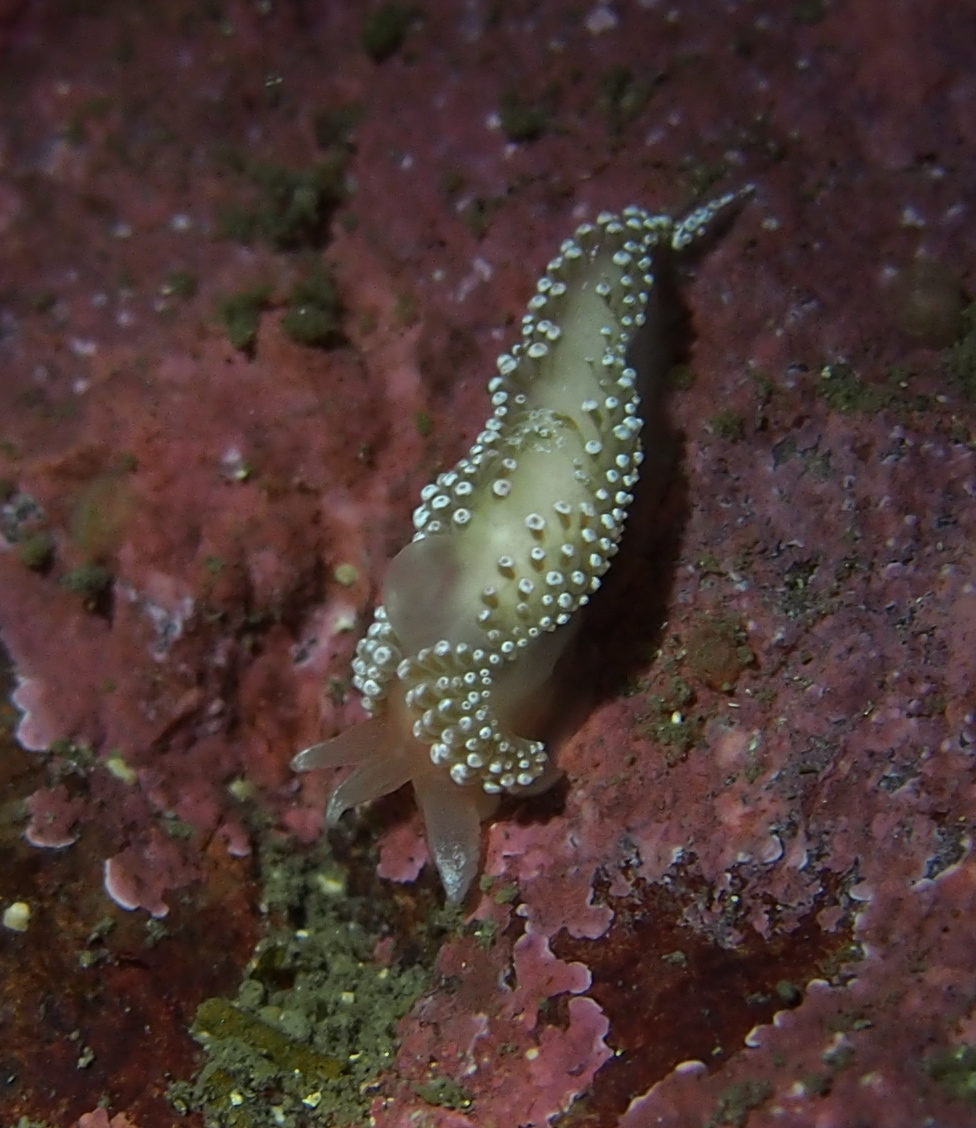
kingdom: Animalia
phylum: Mollusca
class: Gastropoda
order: Nudibranchia
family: Coryphellidae
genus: Coryphella
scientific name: Coryphella verrucosa
